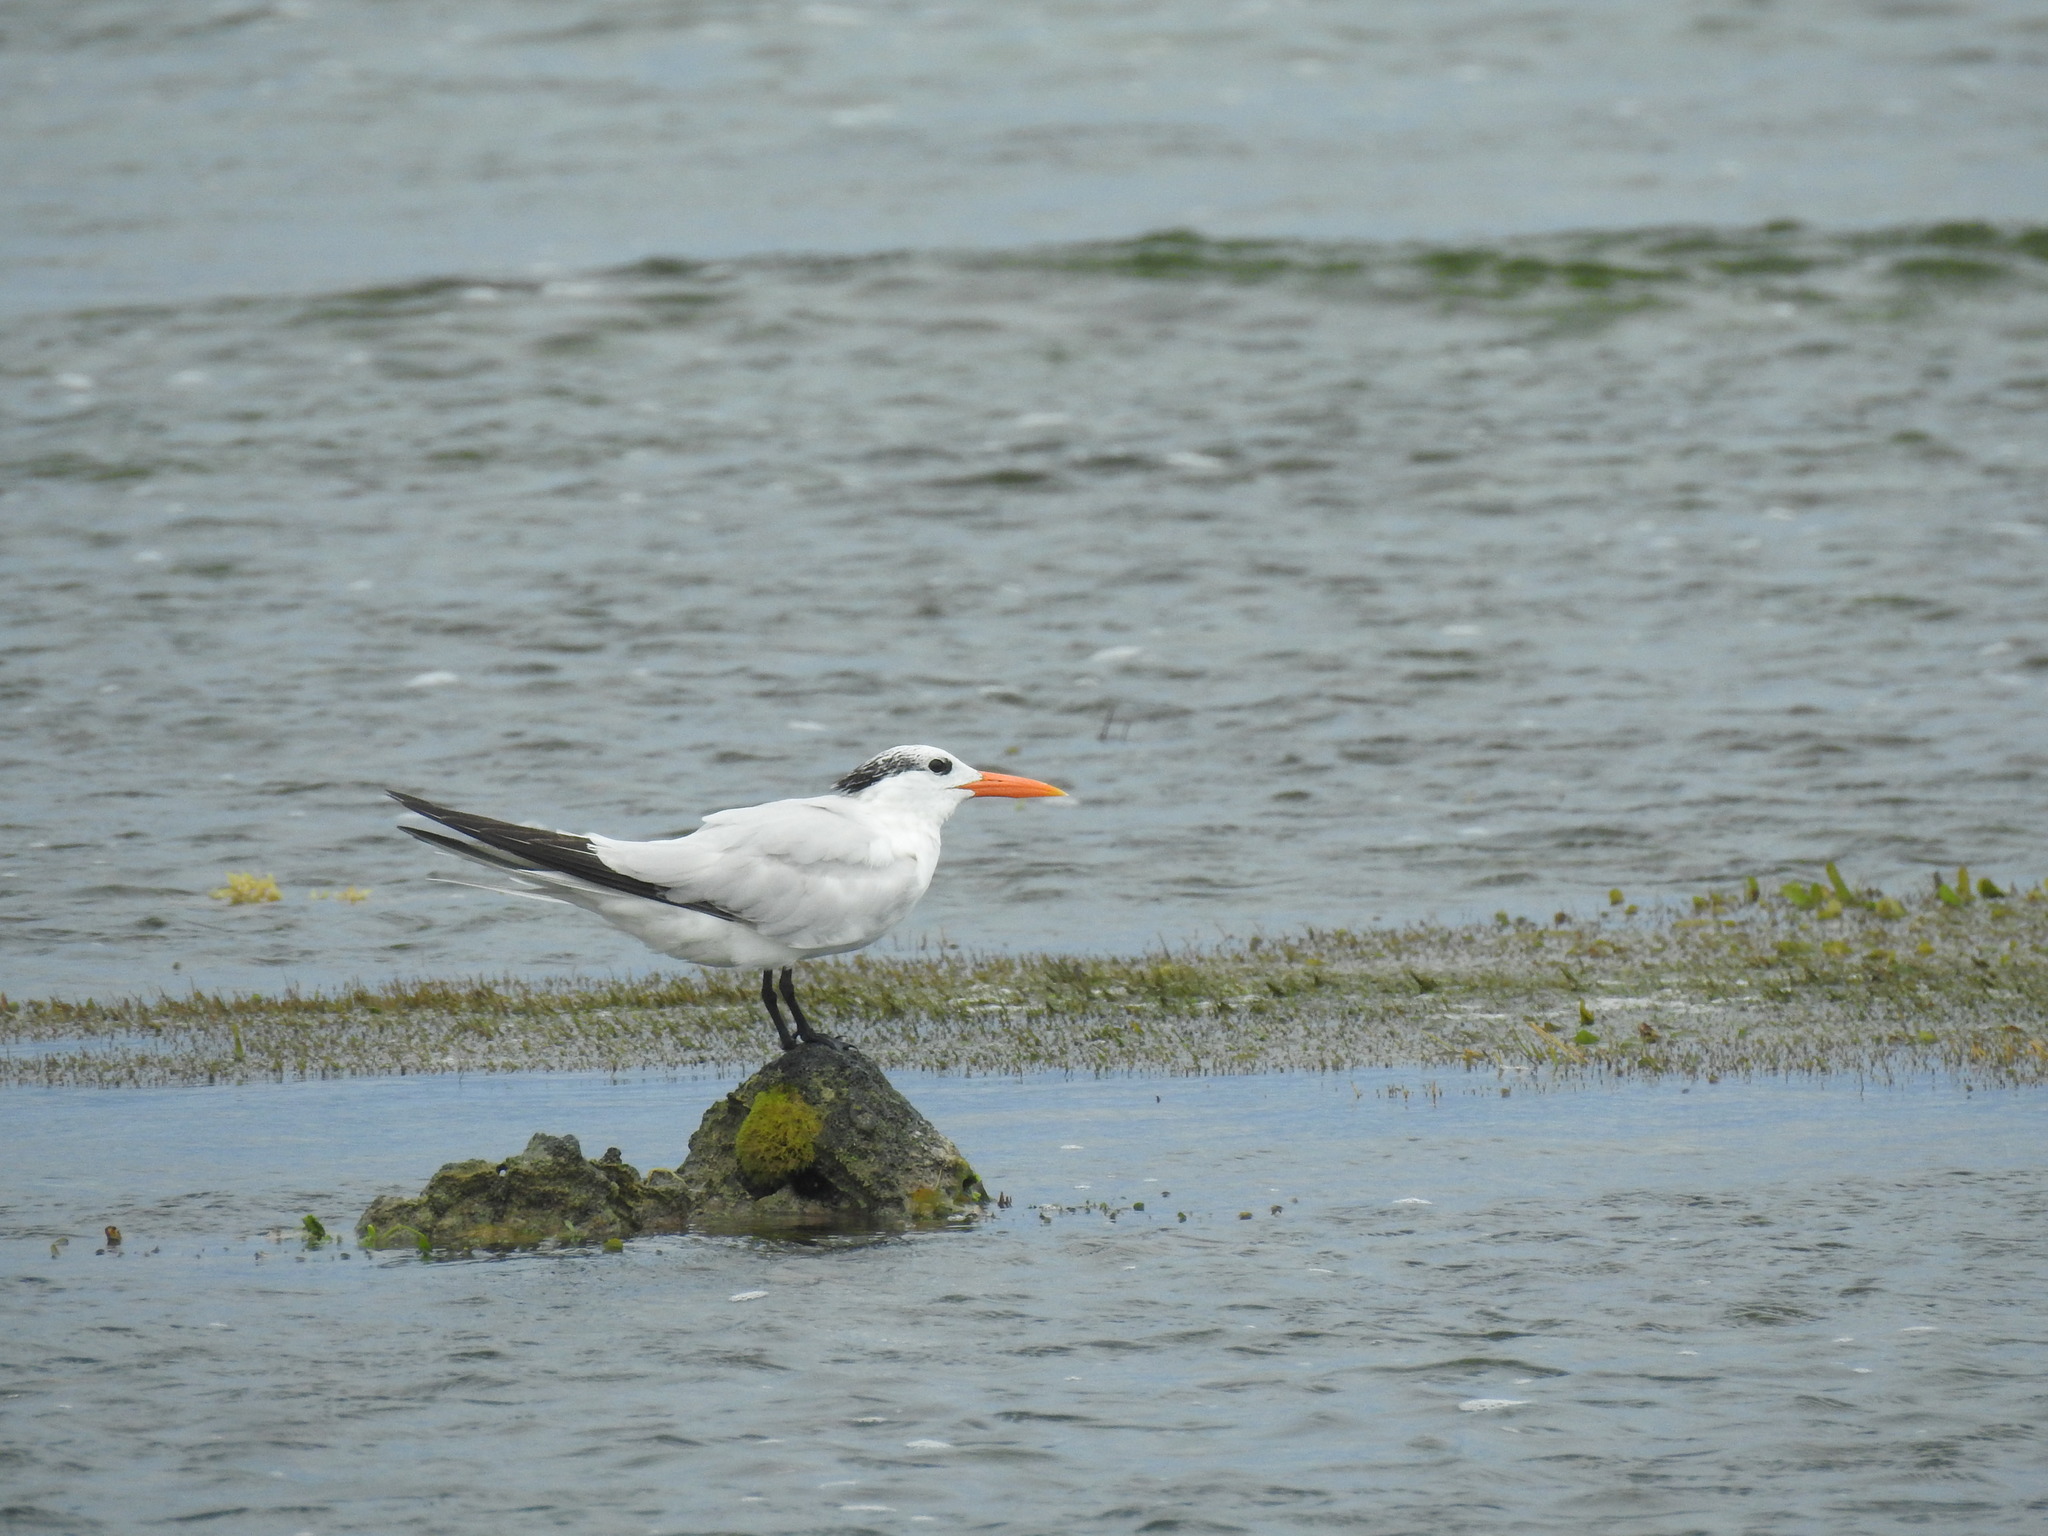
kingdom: Animalia
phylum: Chordata
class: Aves
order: Charadriiformes
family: Laridae
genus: Thalasseus
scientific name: Thalasseus maximus
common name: Royal tern
